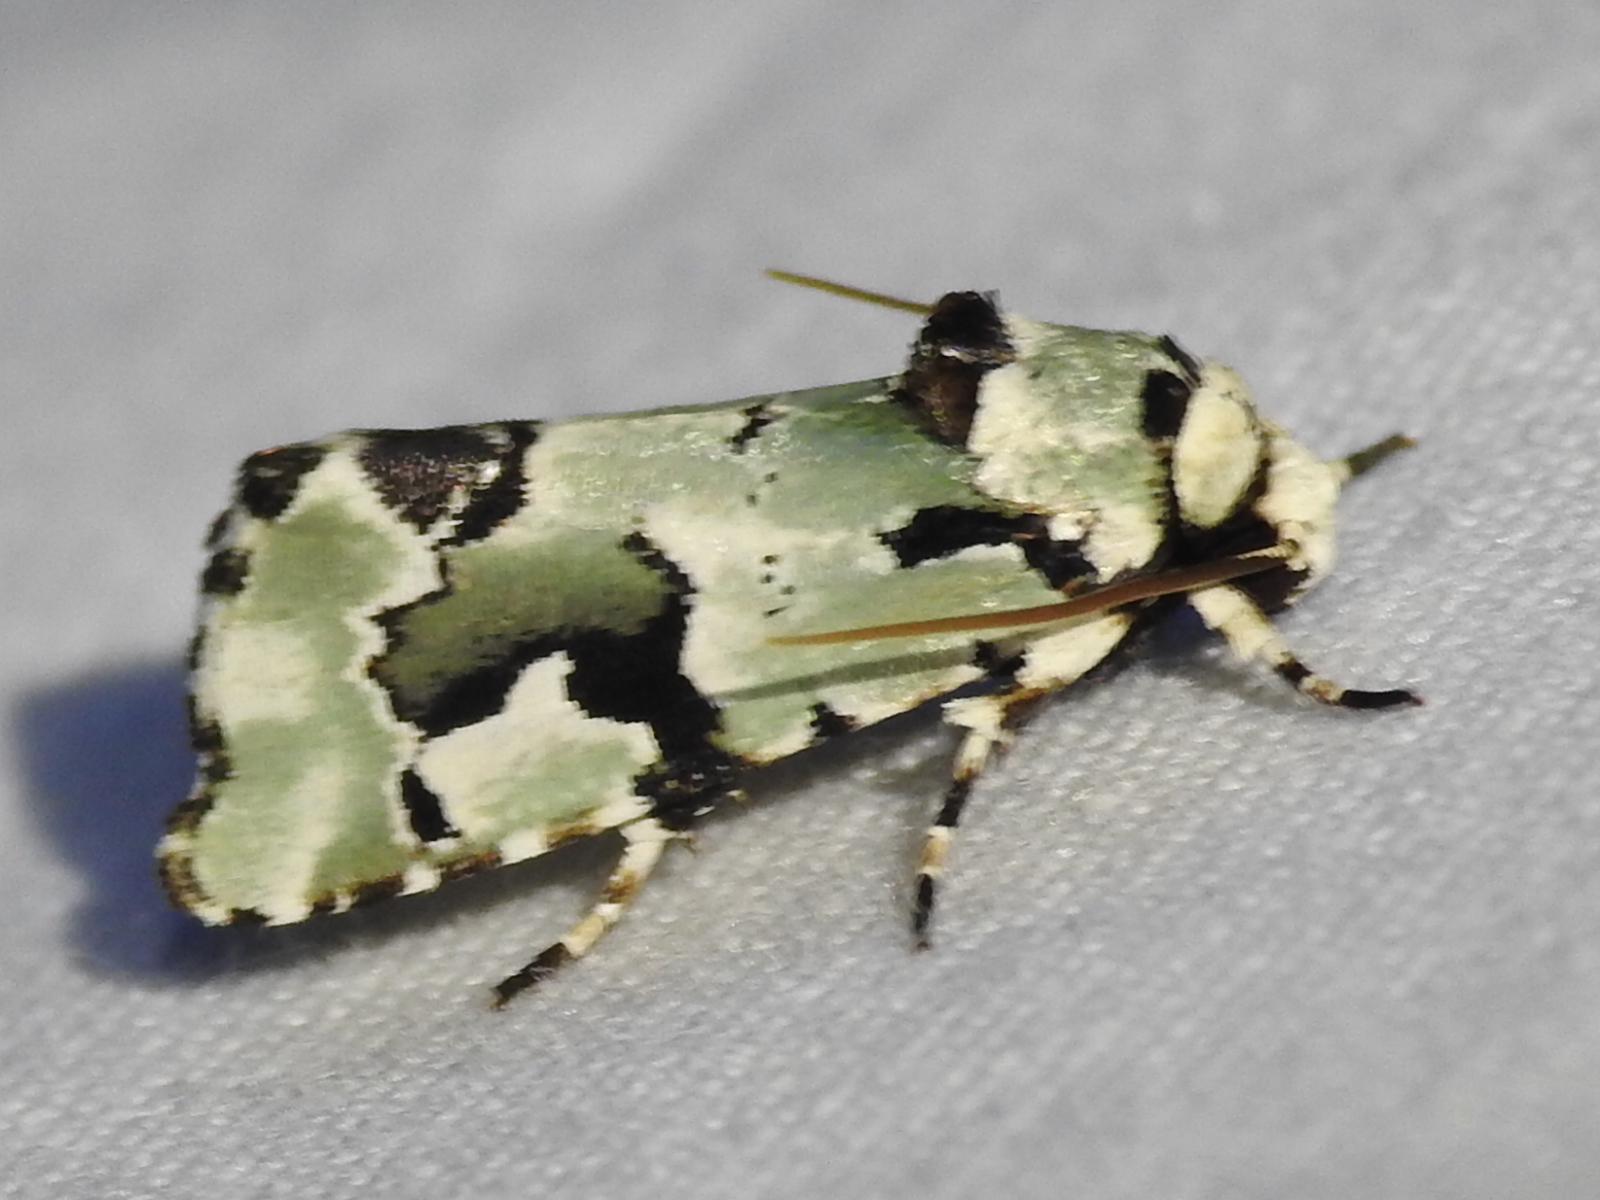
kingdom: Animalia
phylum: Arthropoda
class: Insecta
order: Lepidoptera
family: Noctuidae
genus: Emarginea
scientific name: Emarginea percara
